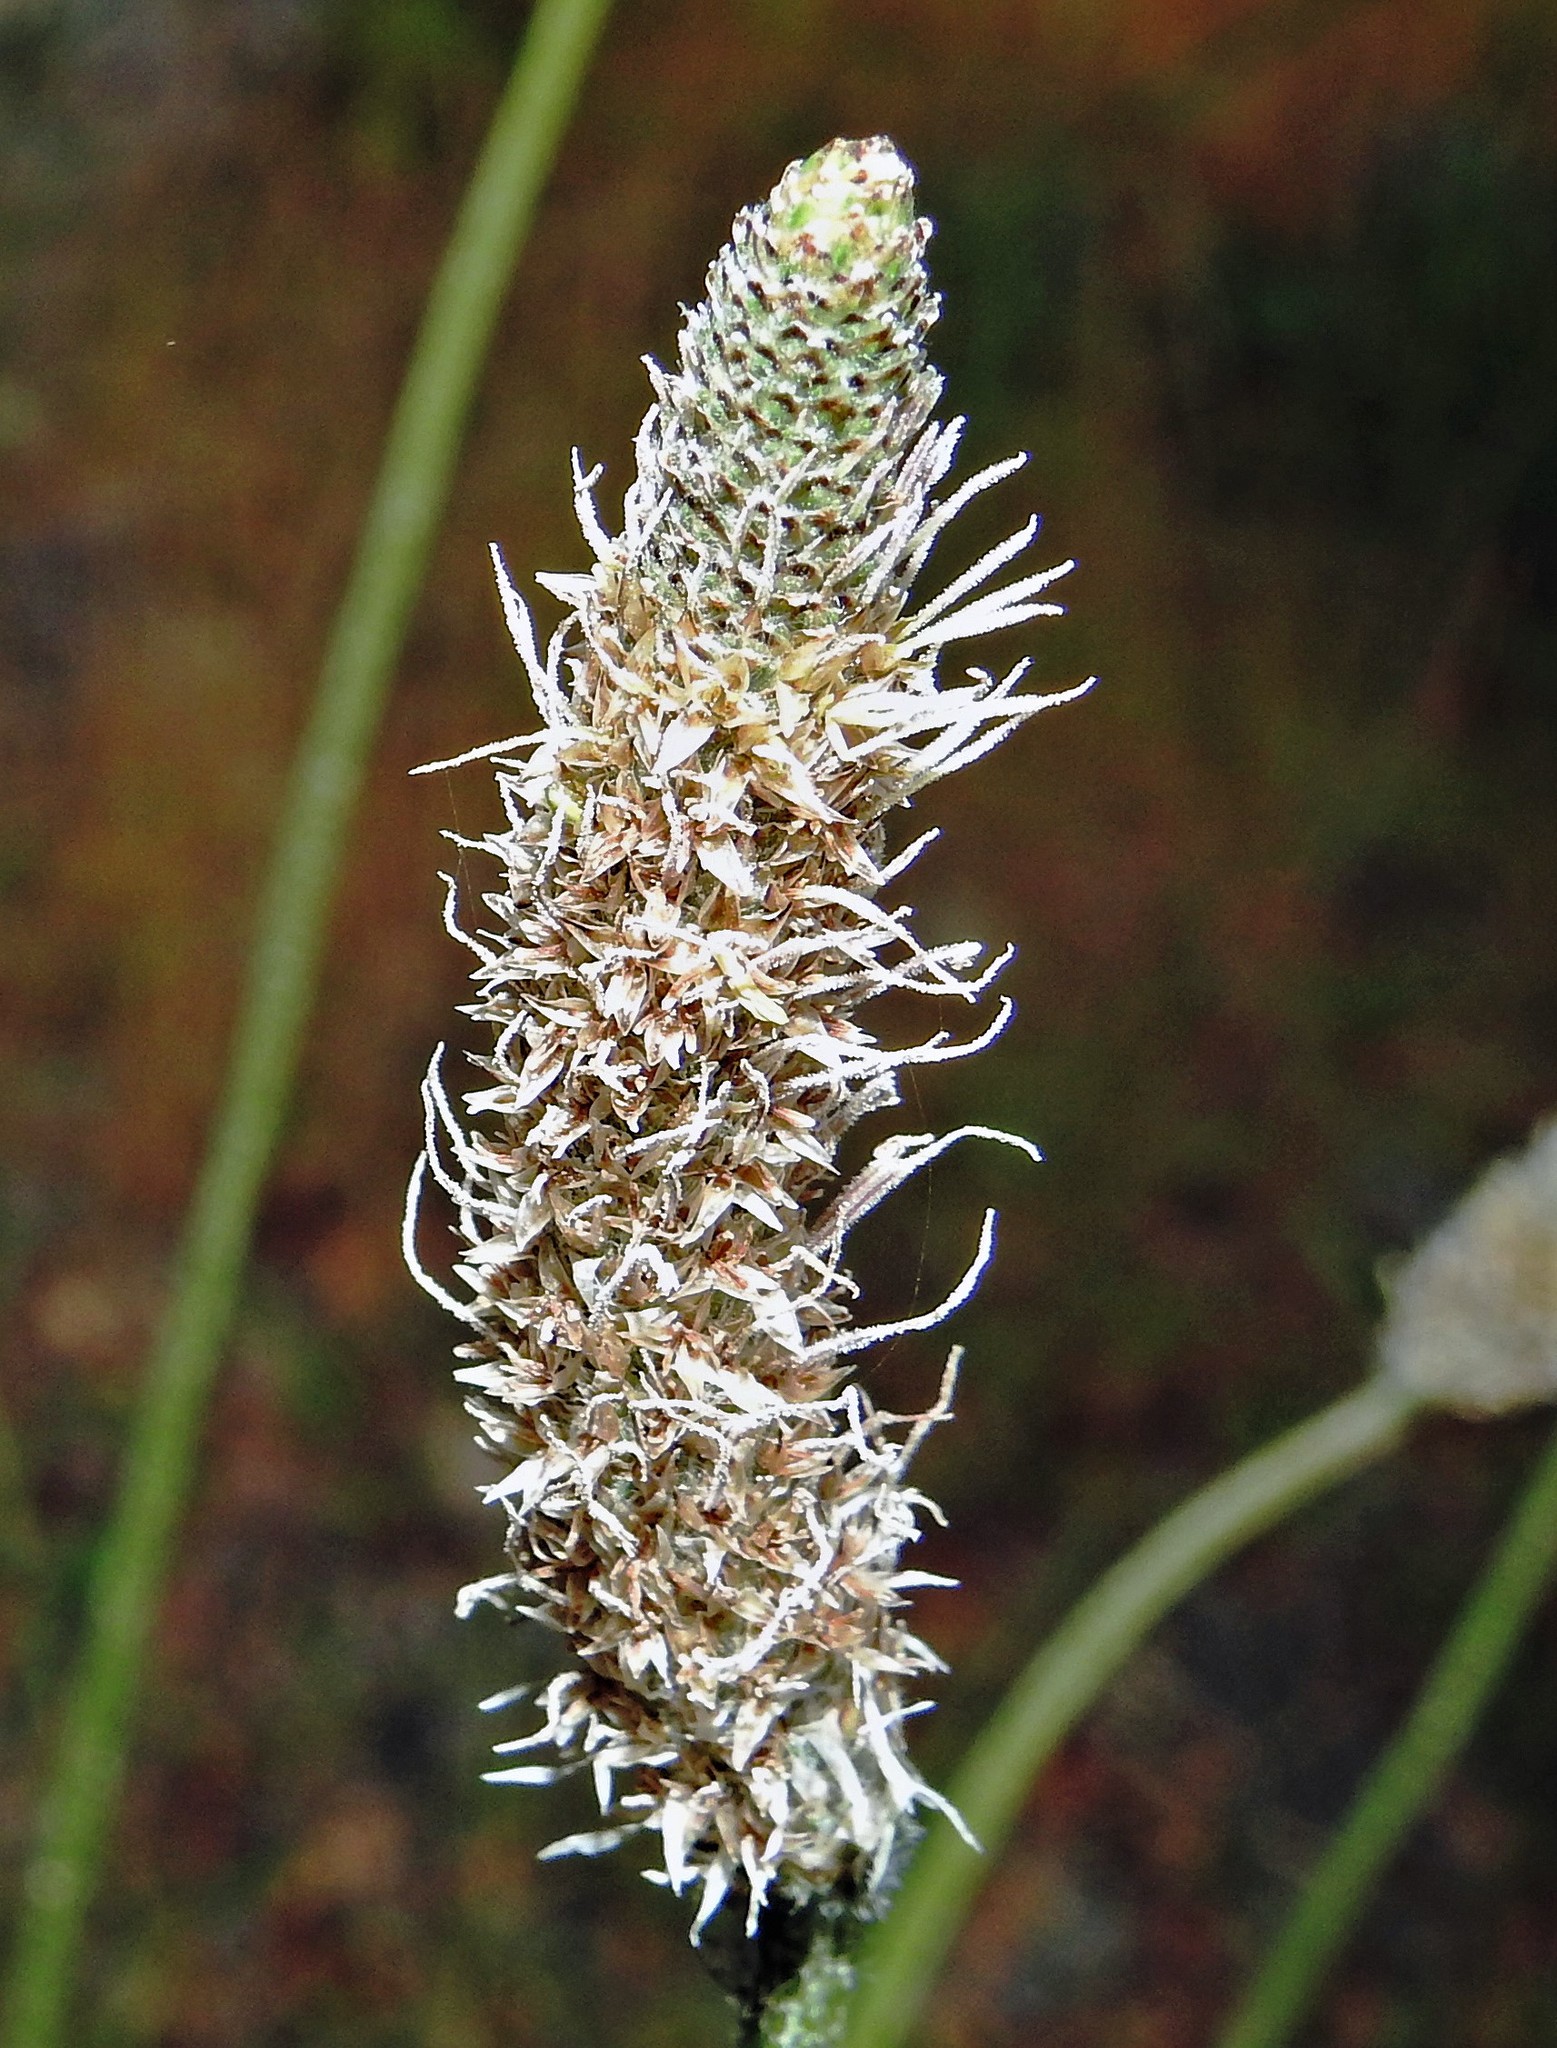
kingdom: Plantae
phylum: Tracheophyta
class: Magnoliopsida
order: Lamiales
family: Plantaginaceae
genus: Plantago
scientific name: Plantago lanceolata
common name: Ribwort plantain
